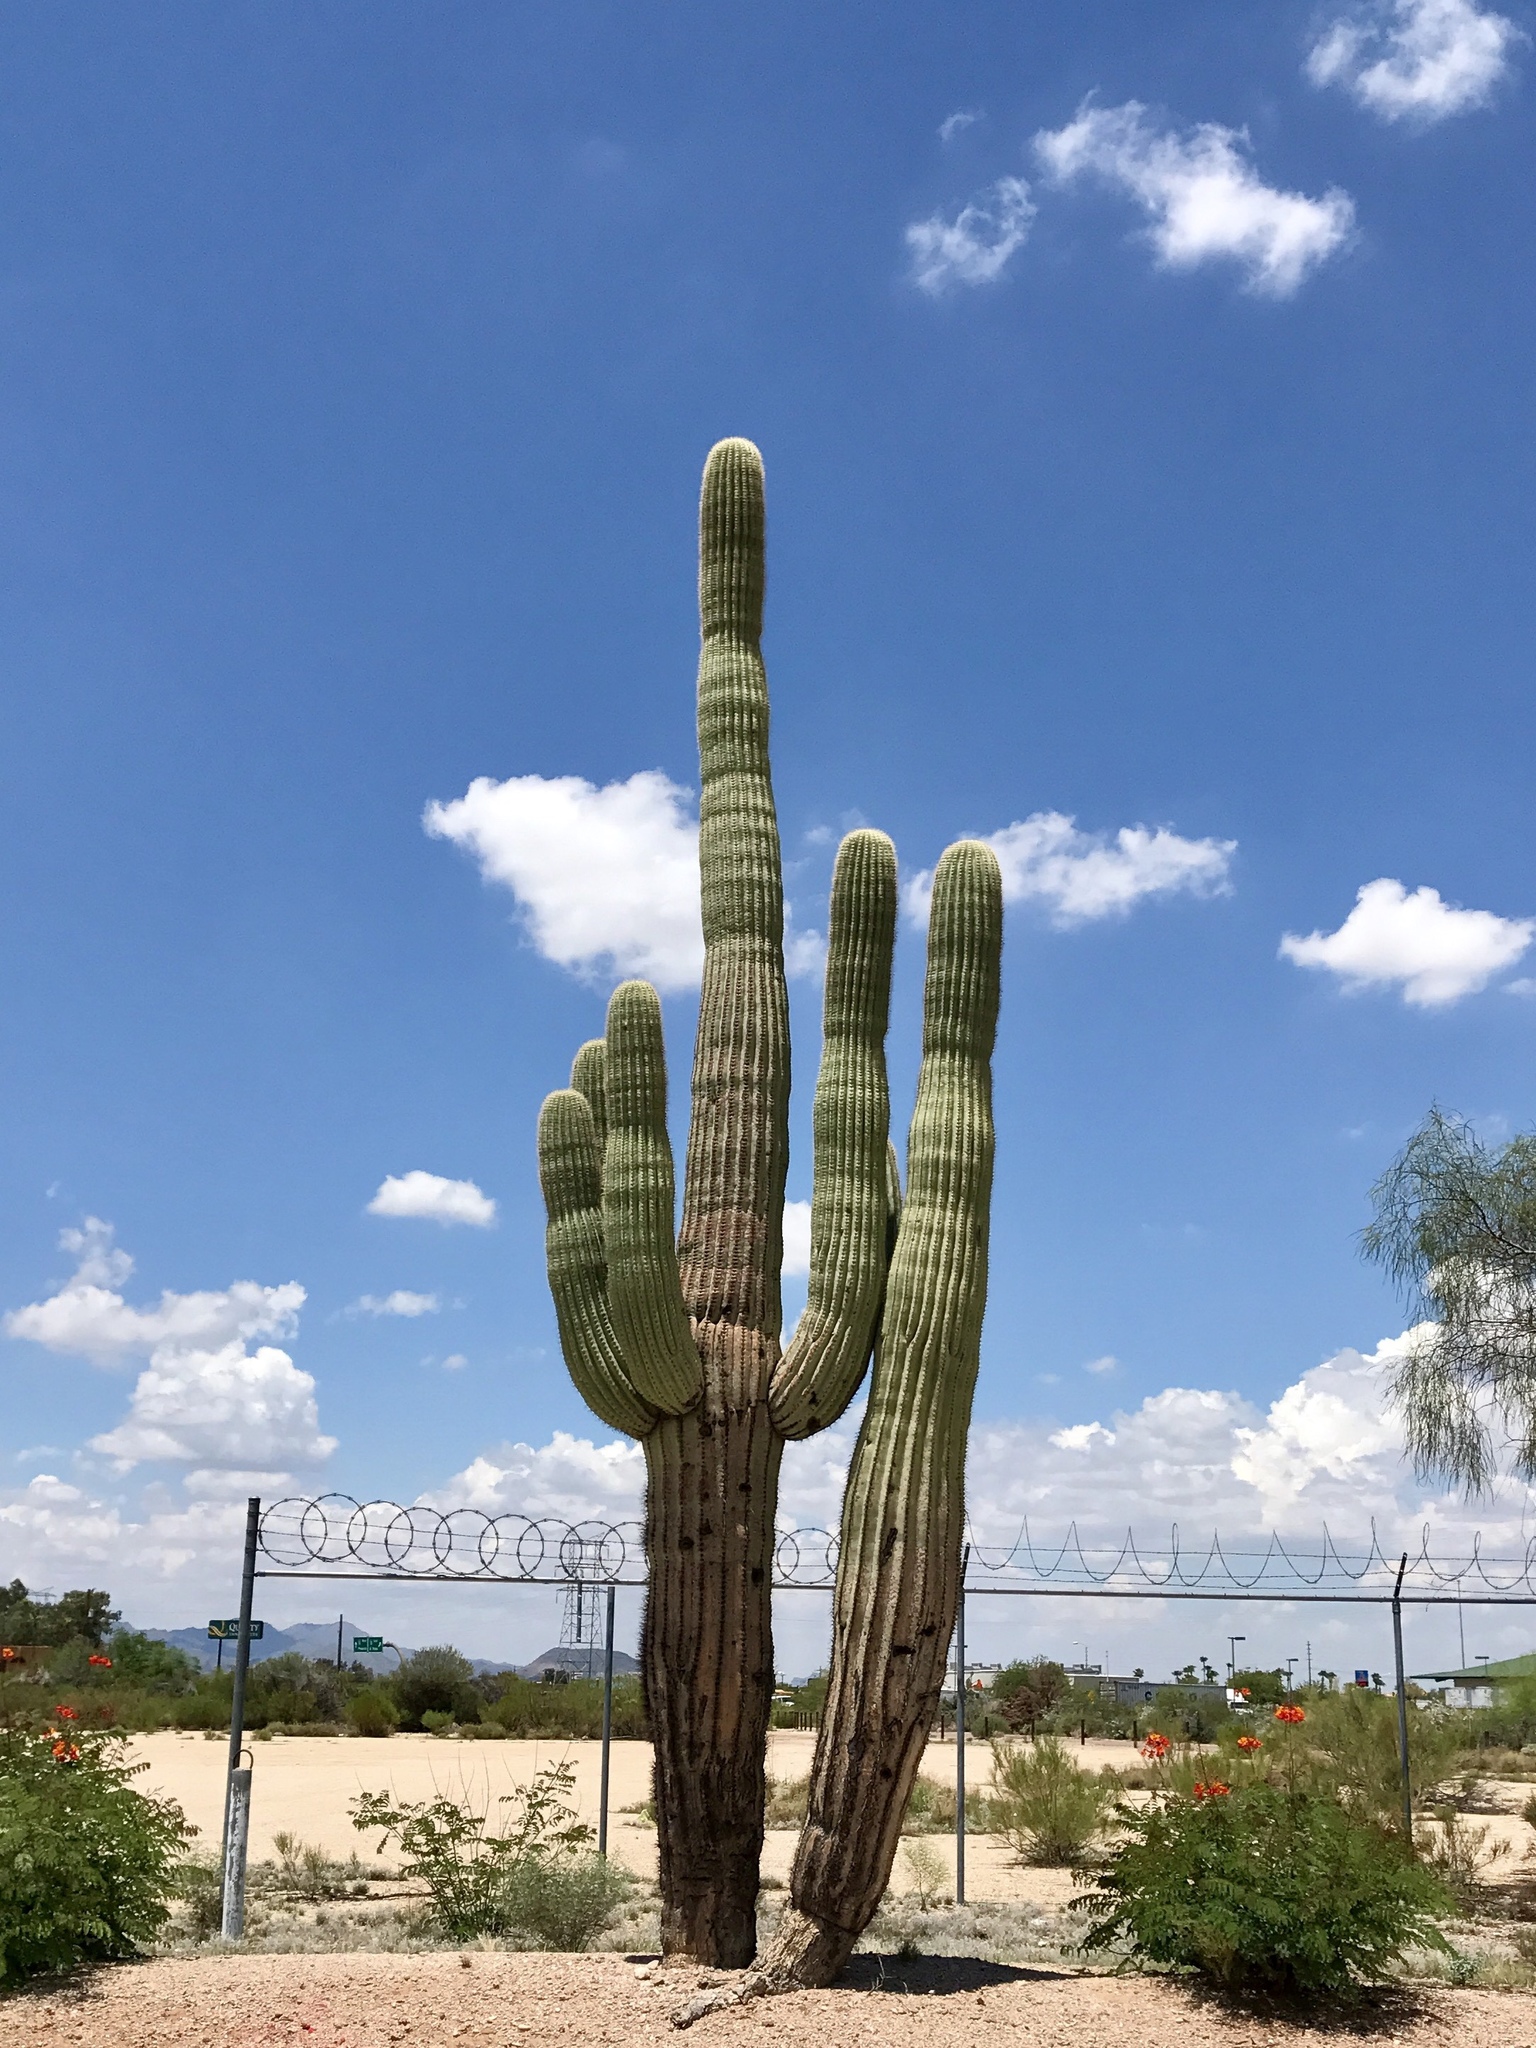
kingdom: Plantae
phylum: Tracheophyta
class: Magnoliopsida
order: Caryophyllales
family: Cactaceae
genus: Carnegiea
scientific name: Carnegiea gigantea
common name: Saguaro
